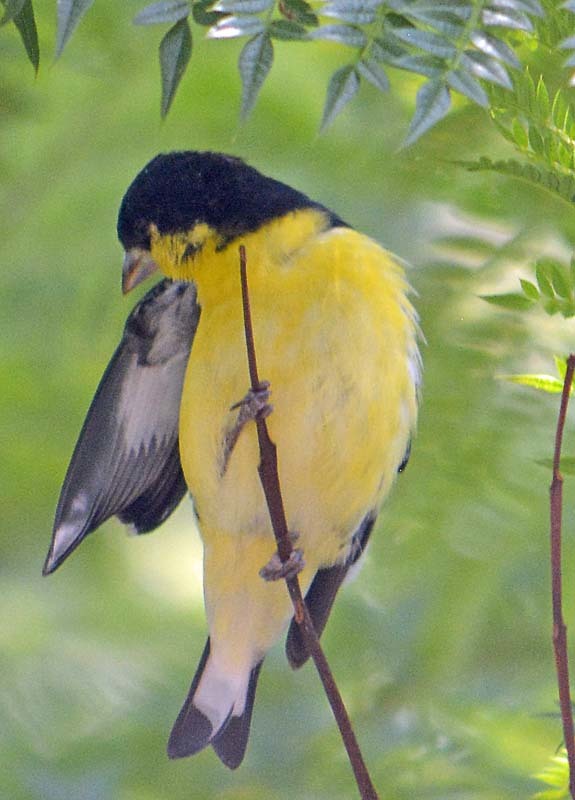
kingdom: Animalia
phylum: Chordata
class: Aves
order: Passeriformes
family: Fringillidae
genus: Spinus
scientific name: Spinus psaltria
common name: Lesser goldfinch
